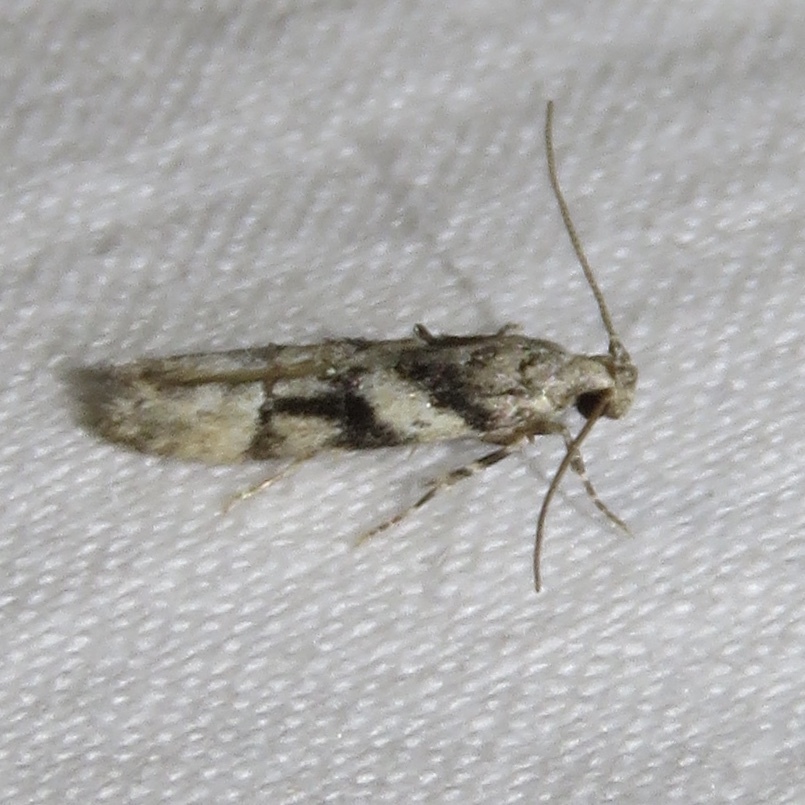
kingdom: Animalia
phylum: Arthropoda
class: Insecta
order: Lepidoptera
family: Gelechiidae
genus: Coleotechnites
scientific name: Coleotechnites atrupictella
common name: Spruce micromoth
